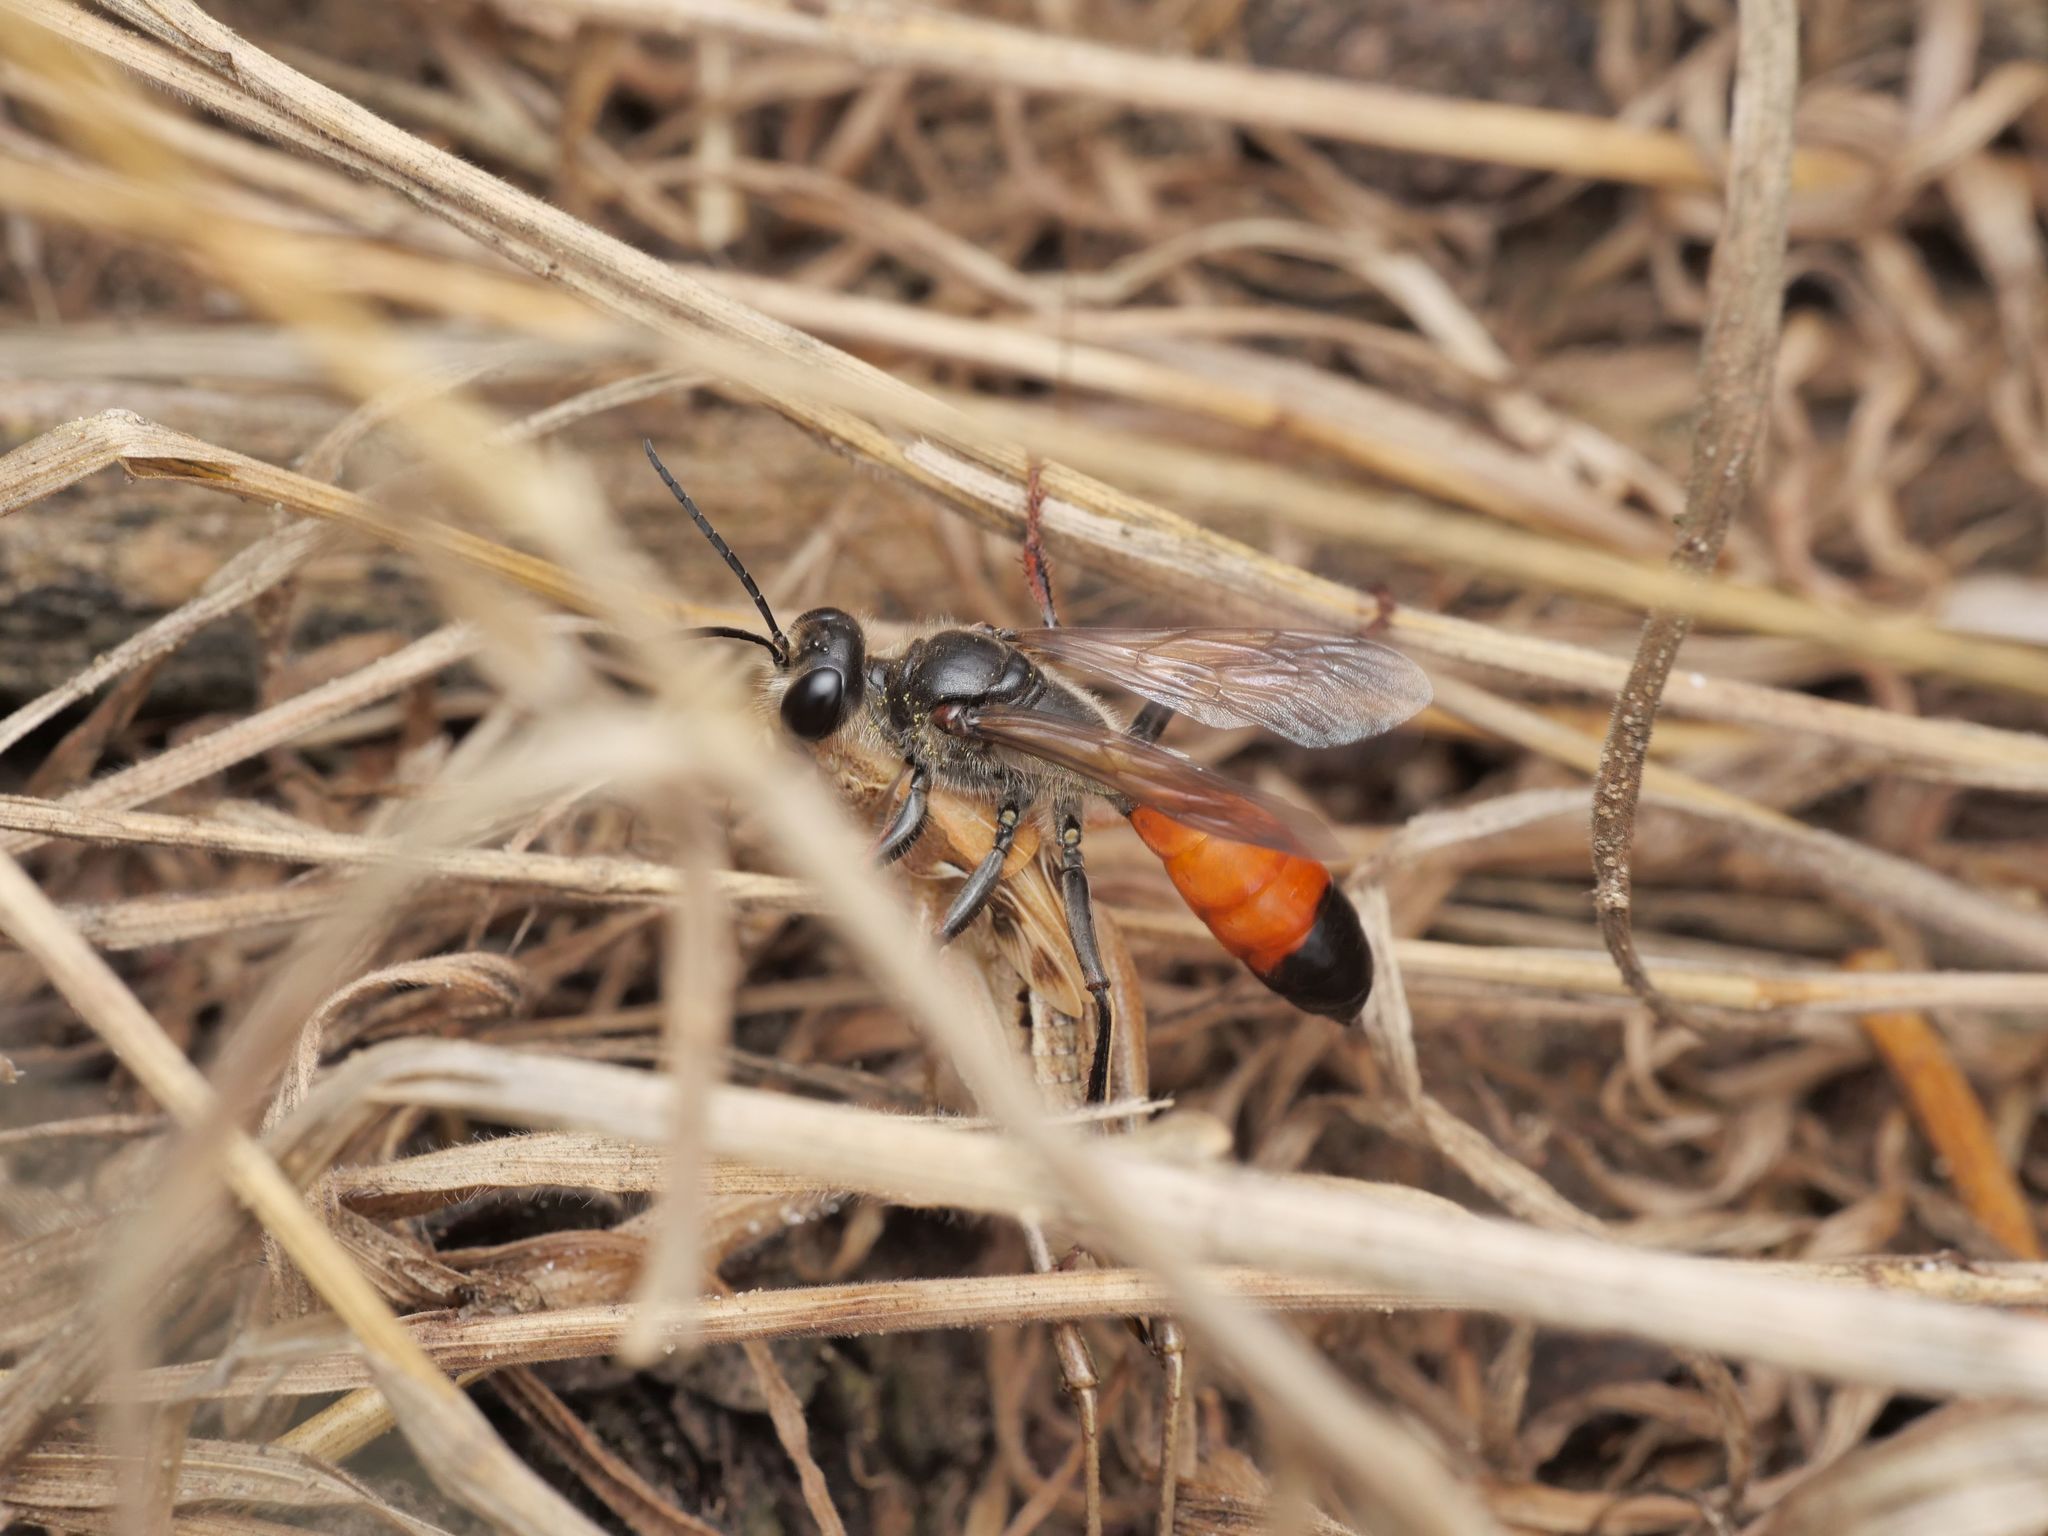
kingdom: Animalia
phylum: Arthropoda
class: Insecta
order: Hymenoptera
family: Sphecidae
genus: Sphex
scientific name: Sphex funerarius
